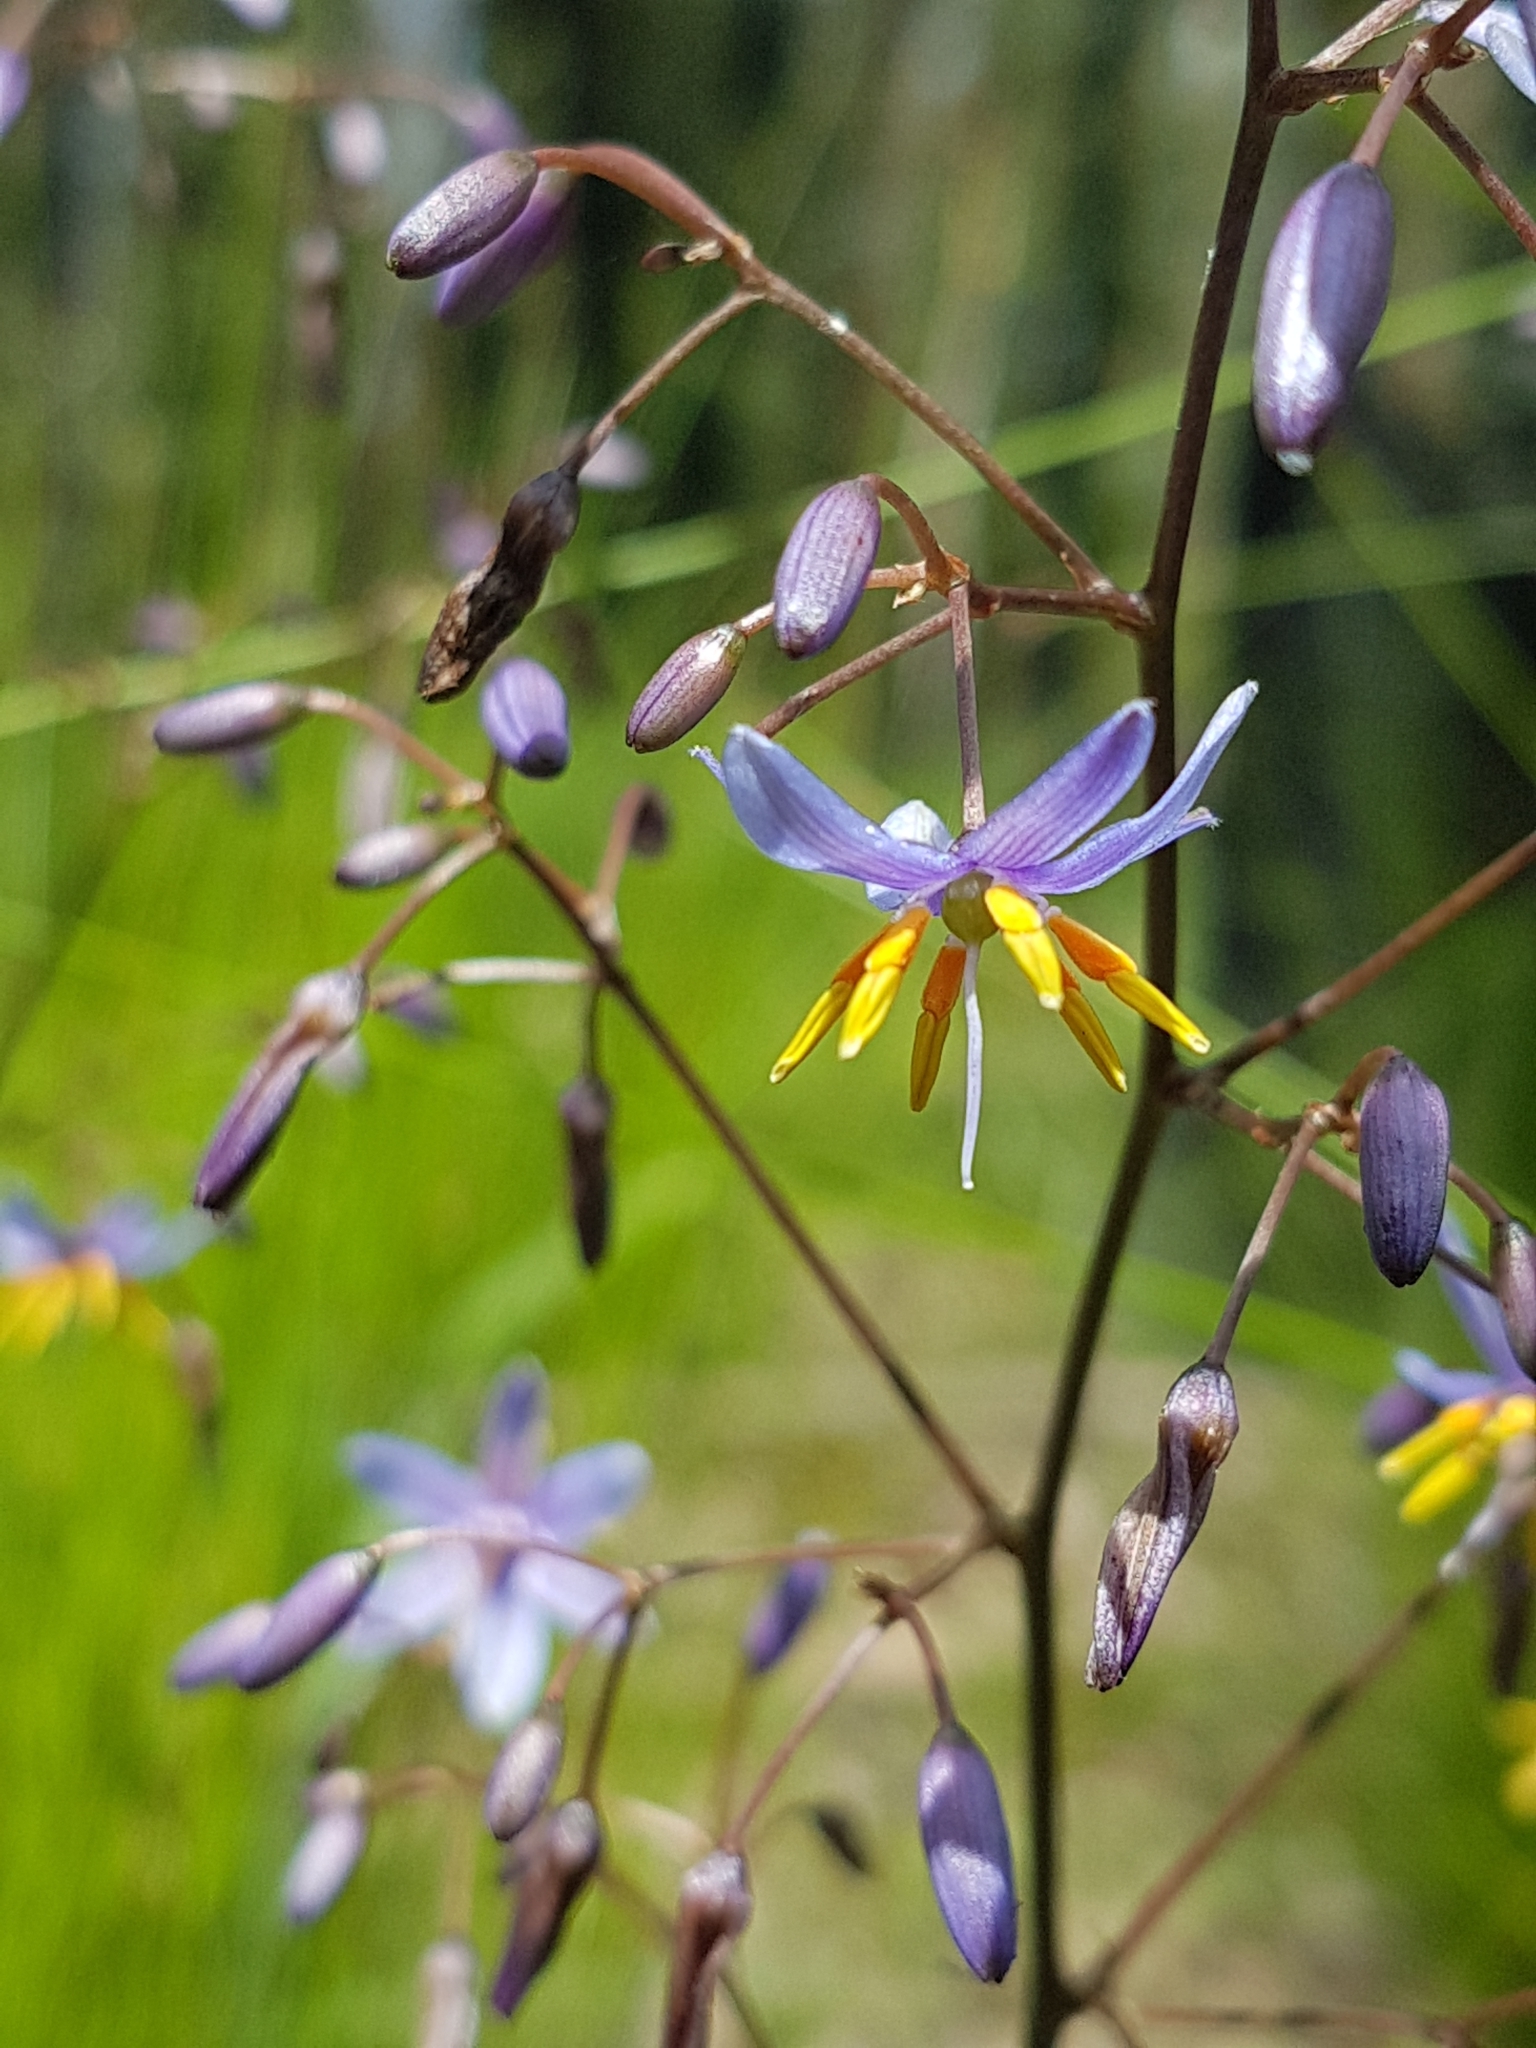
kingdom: Plantae
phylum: Tracheophyta
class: Liliopsida
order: Asparagales
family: Asphodelaceae
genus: Dianella
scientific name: Dianella caerulea
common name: Blue flax-lily
